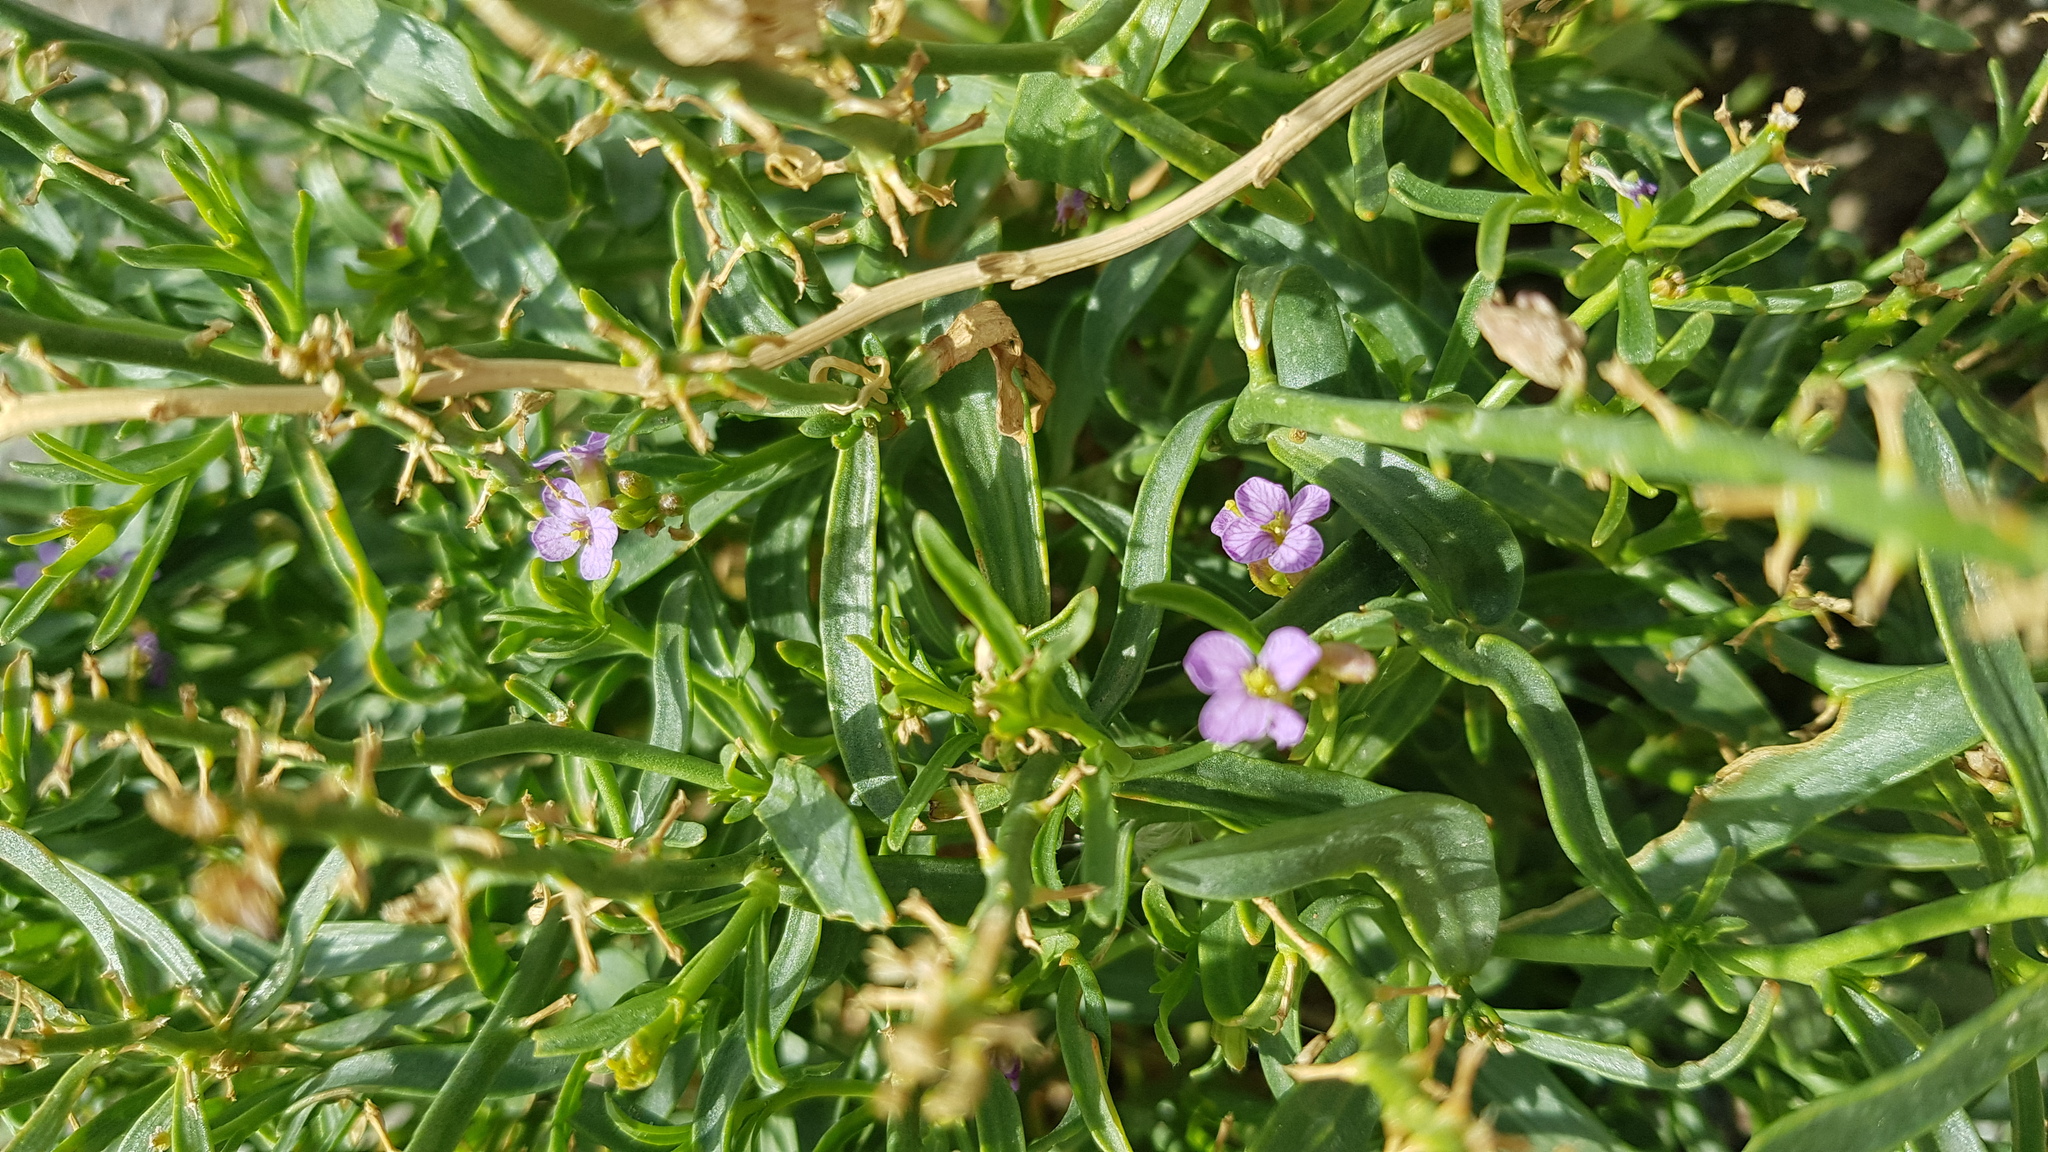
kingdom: Plantae
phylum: Tracheophyta
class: Magnoliopsida
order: Brassicales
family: Brassicaceae
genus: Dontostemon
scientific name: Dontostemon elegans
